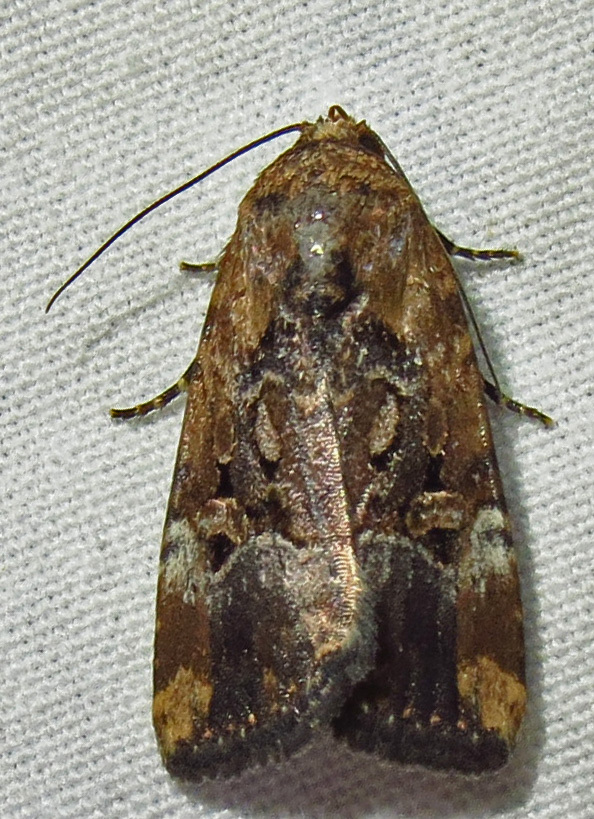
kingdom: Animalia
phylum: Arthropoda
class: Insecta
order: Lepidoptera
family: Noctuidae
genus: Elaphria
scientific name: Elaphria chalcedonia
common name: Chalcedony midget
